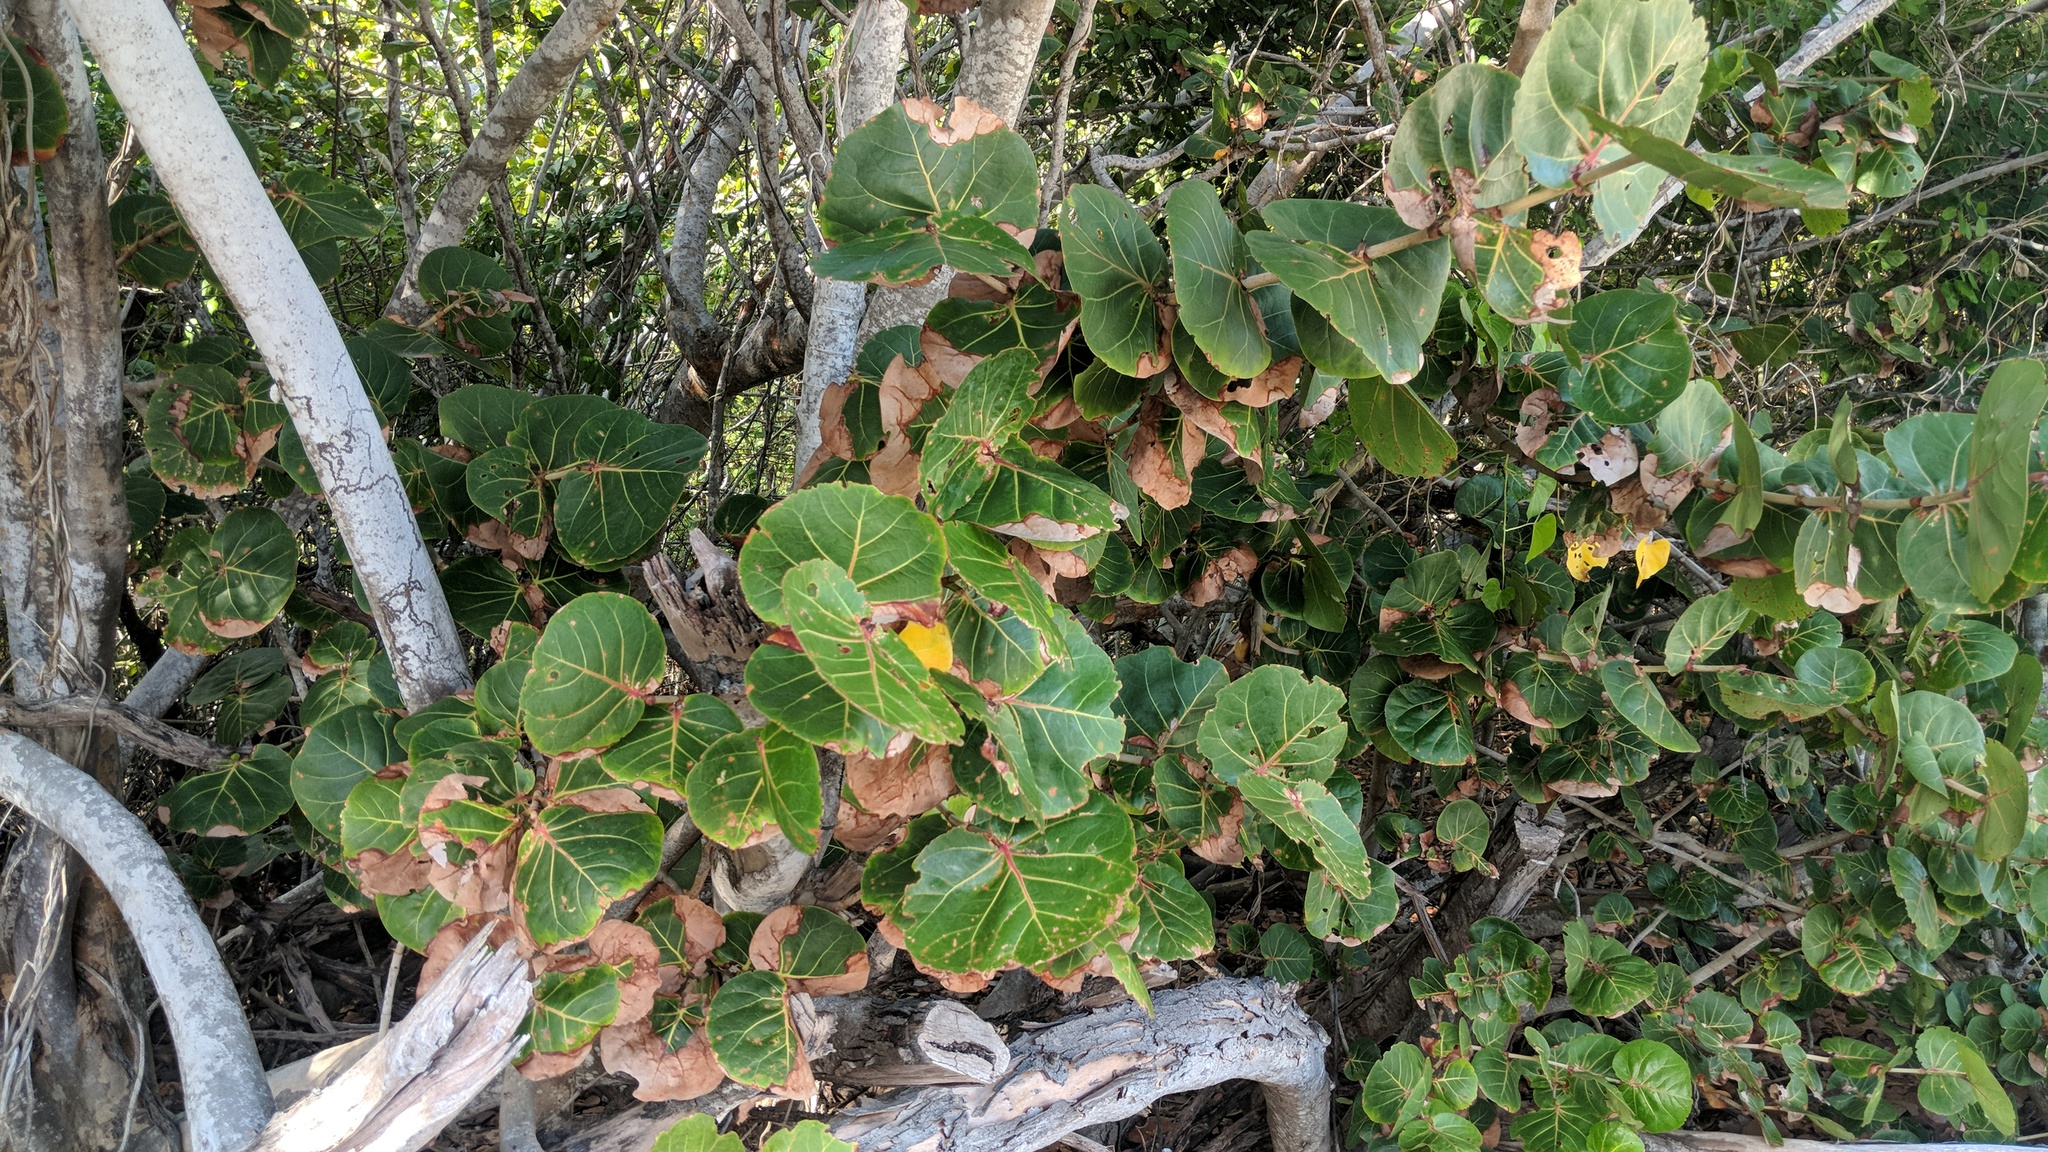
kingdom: Plantae
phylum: Tracheophyta
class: Magnoliopsida
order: Caryophyllales
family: Polygonaceae
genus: Coccoloba
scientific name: Coccoloba uvifera
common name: Seagrape
